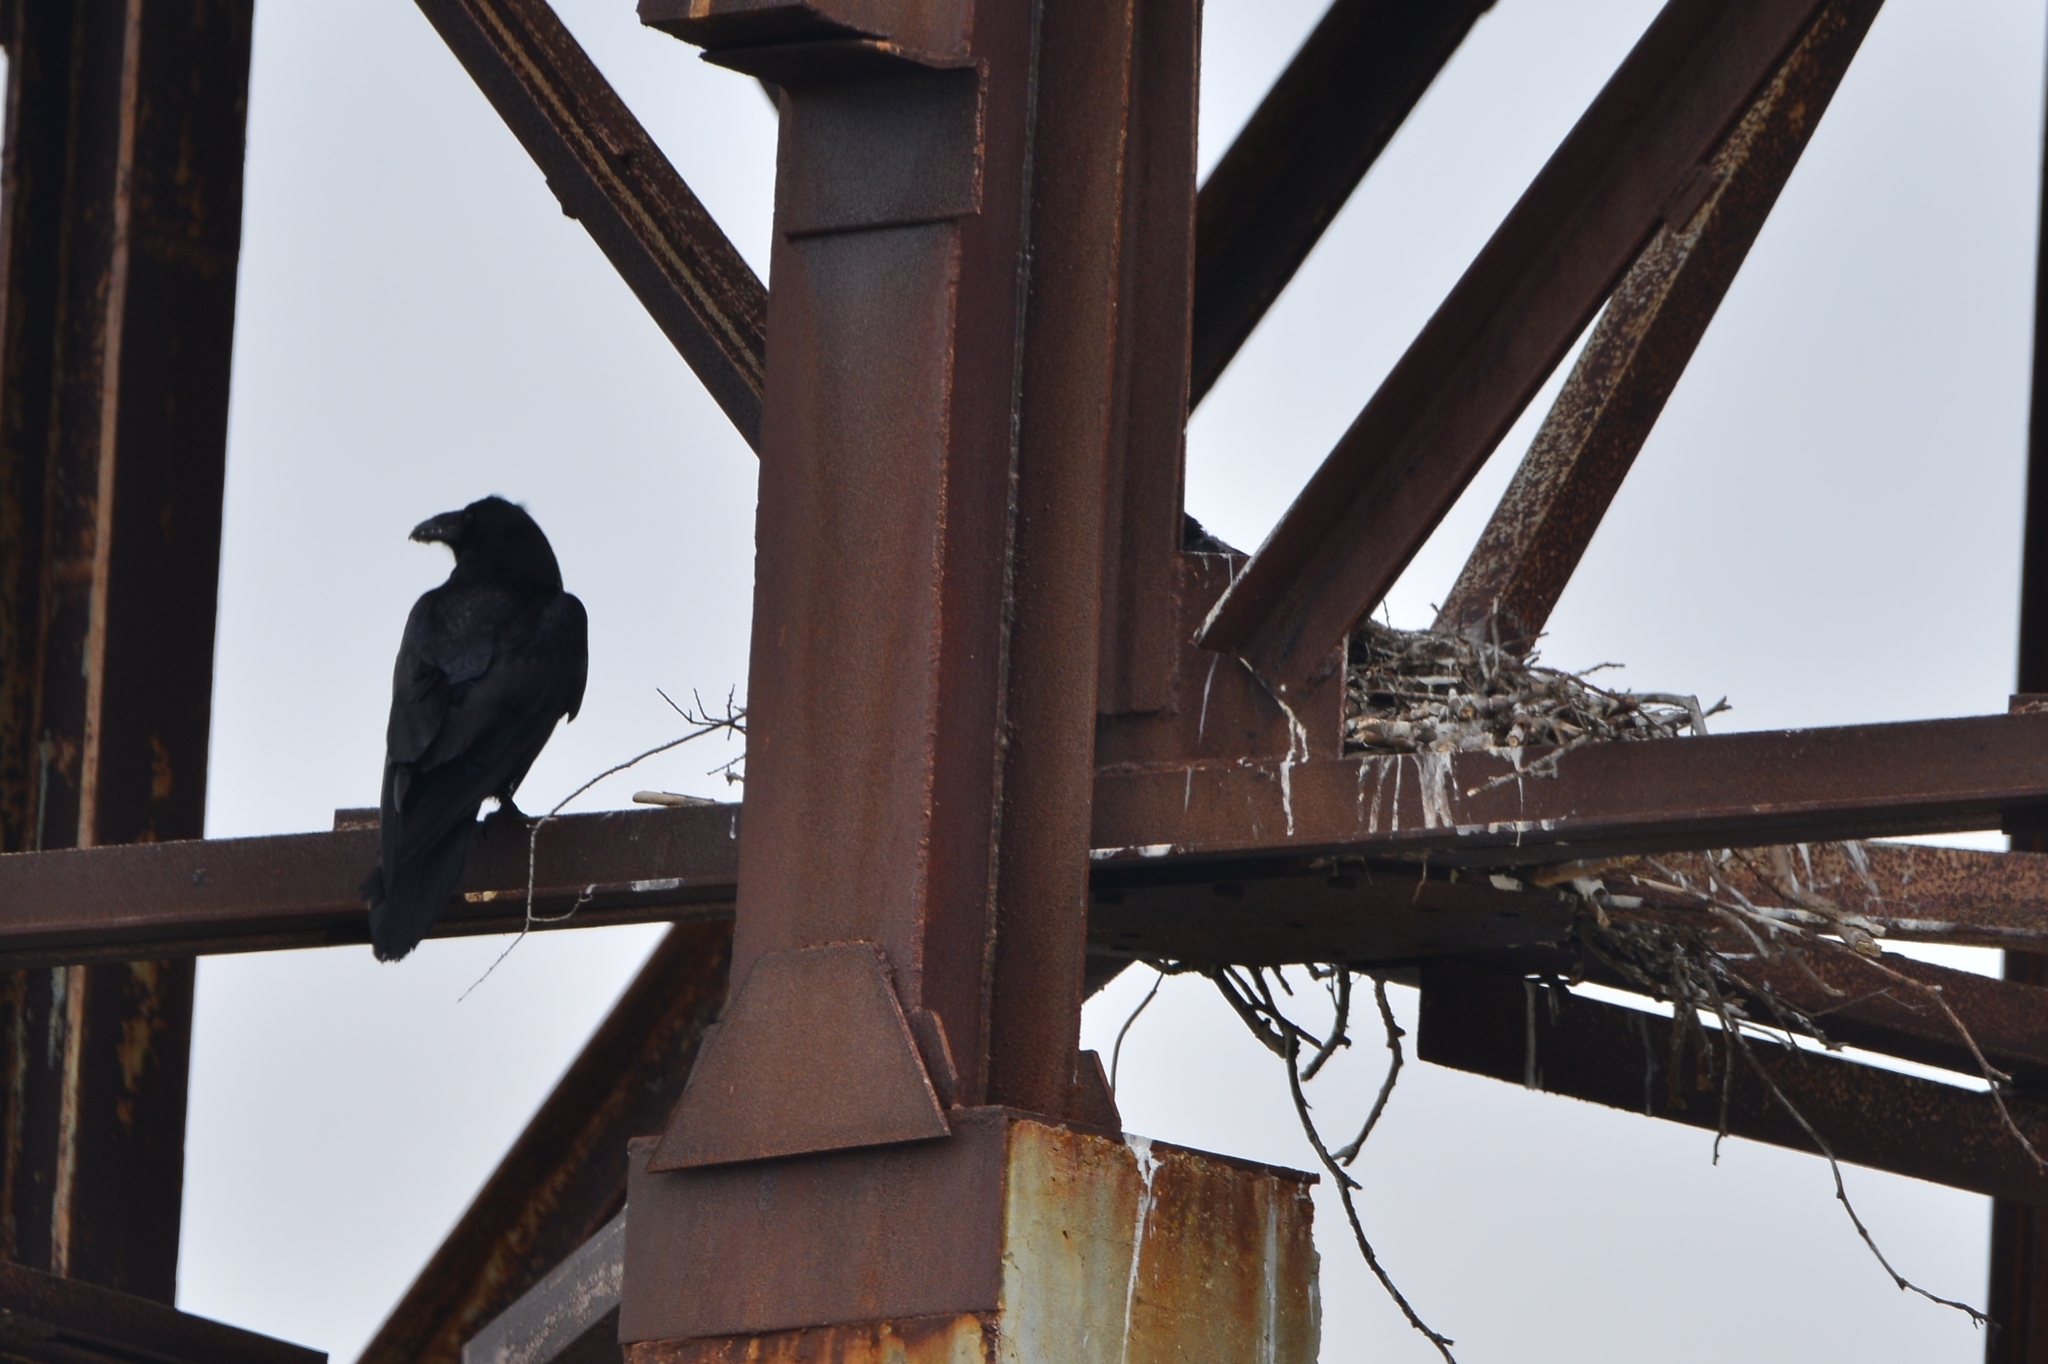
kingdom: Animalia
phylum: Chordata
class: Aves
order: Passeriformes
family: Corvidae
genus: Corvus
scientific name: Corvus corax
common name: Common raven
